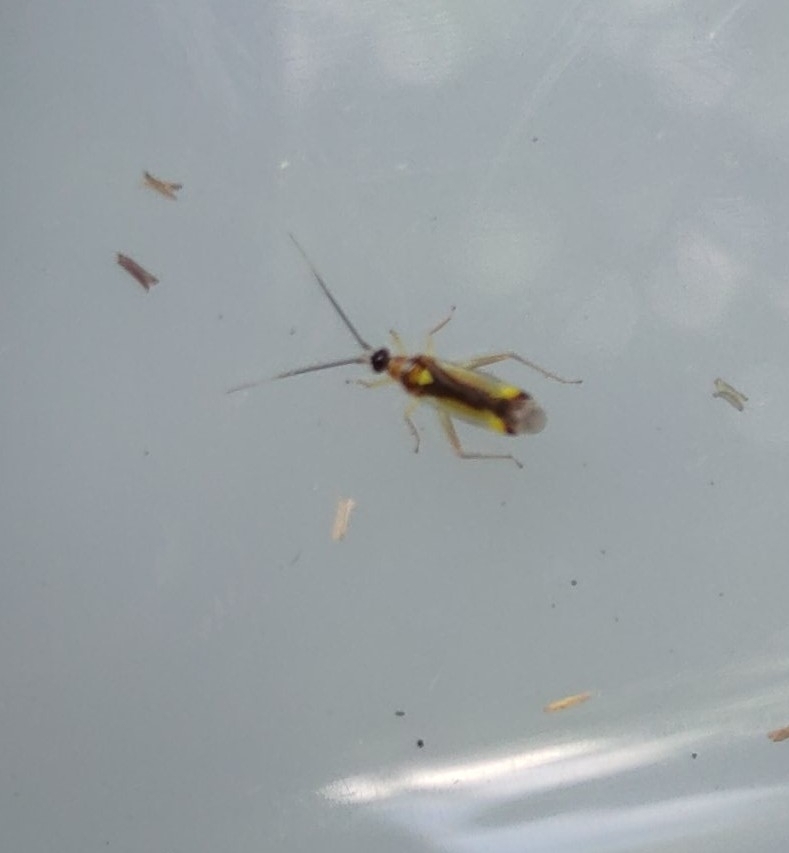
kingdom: Animalia
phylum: Arthropoda
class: Insecta
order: Hemiptera
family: Miridae
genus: Campyloneura
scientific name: Campyloneura virgula
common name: Predatory bug
